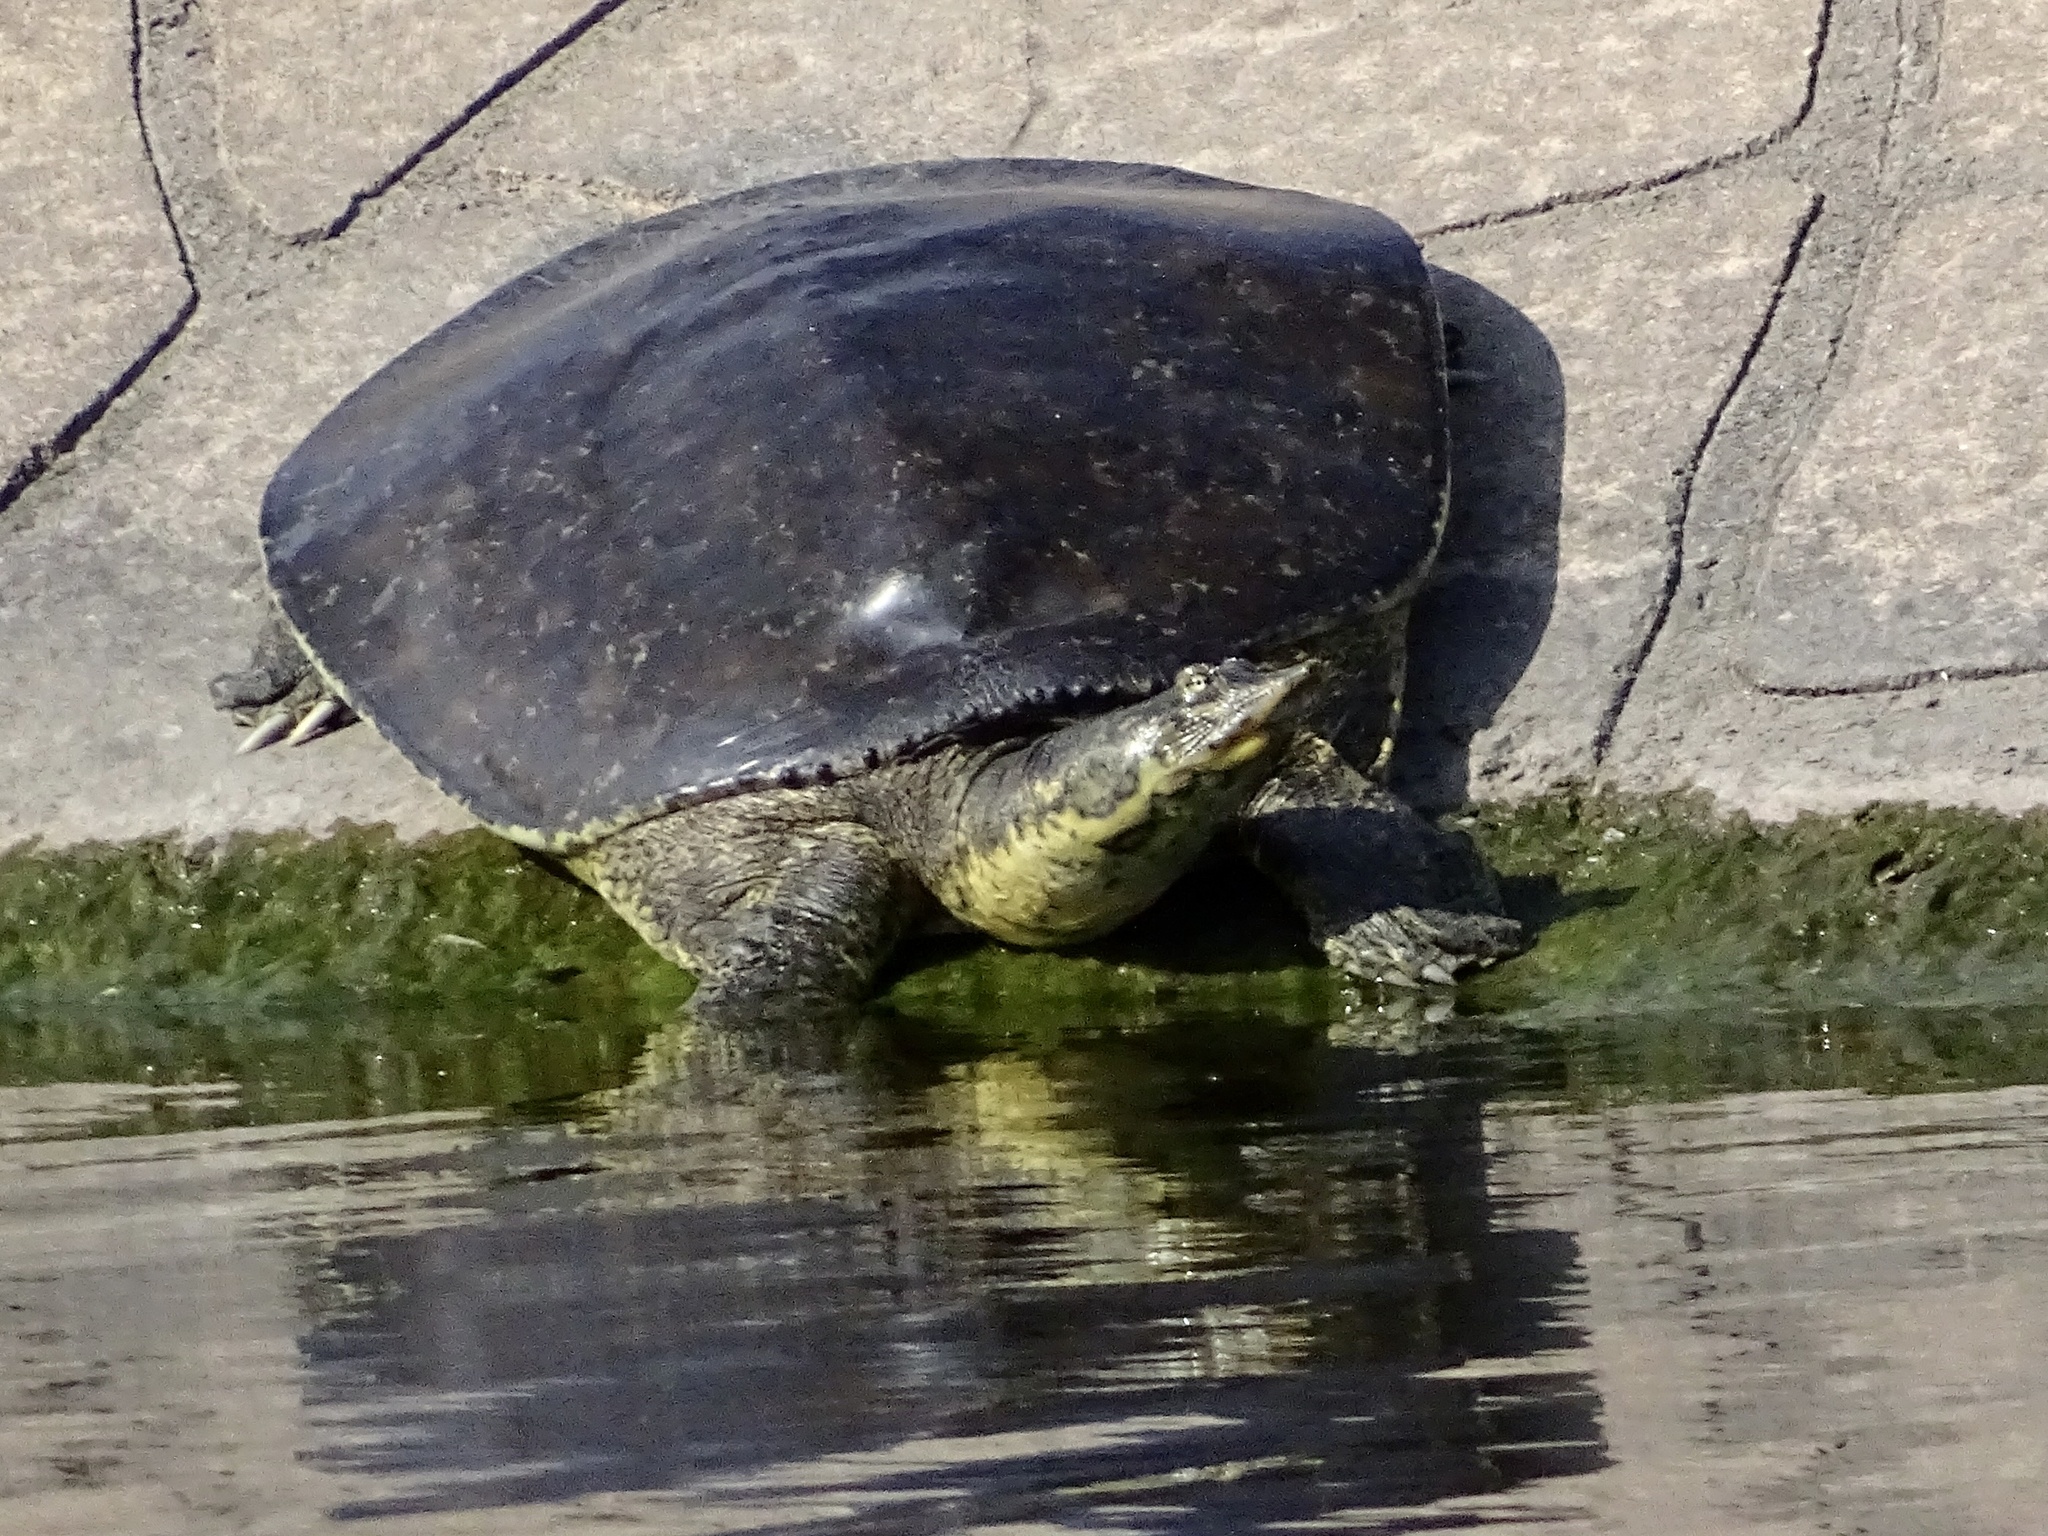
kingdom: Animalia
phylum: Chordata
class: Testudines
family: Trionychidae
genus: Apalone
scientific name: Apalone spinifera
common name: Spiny softshell turtle
